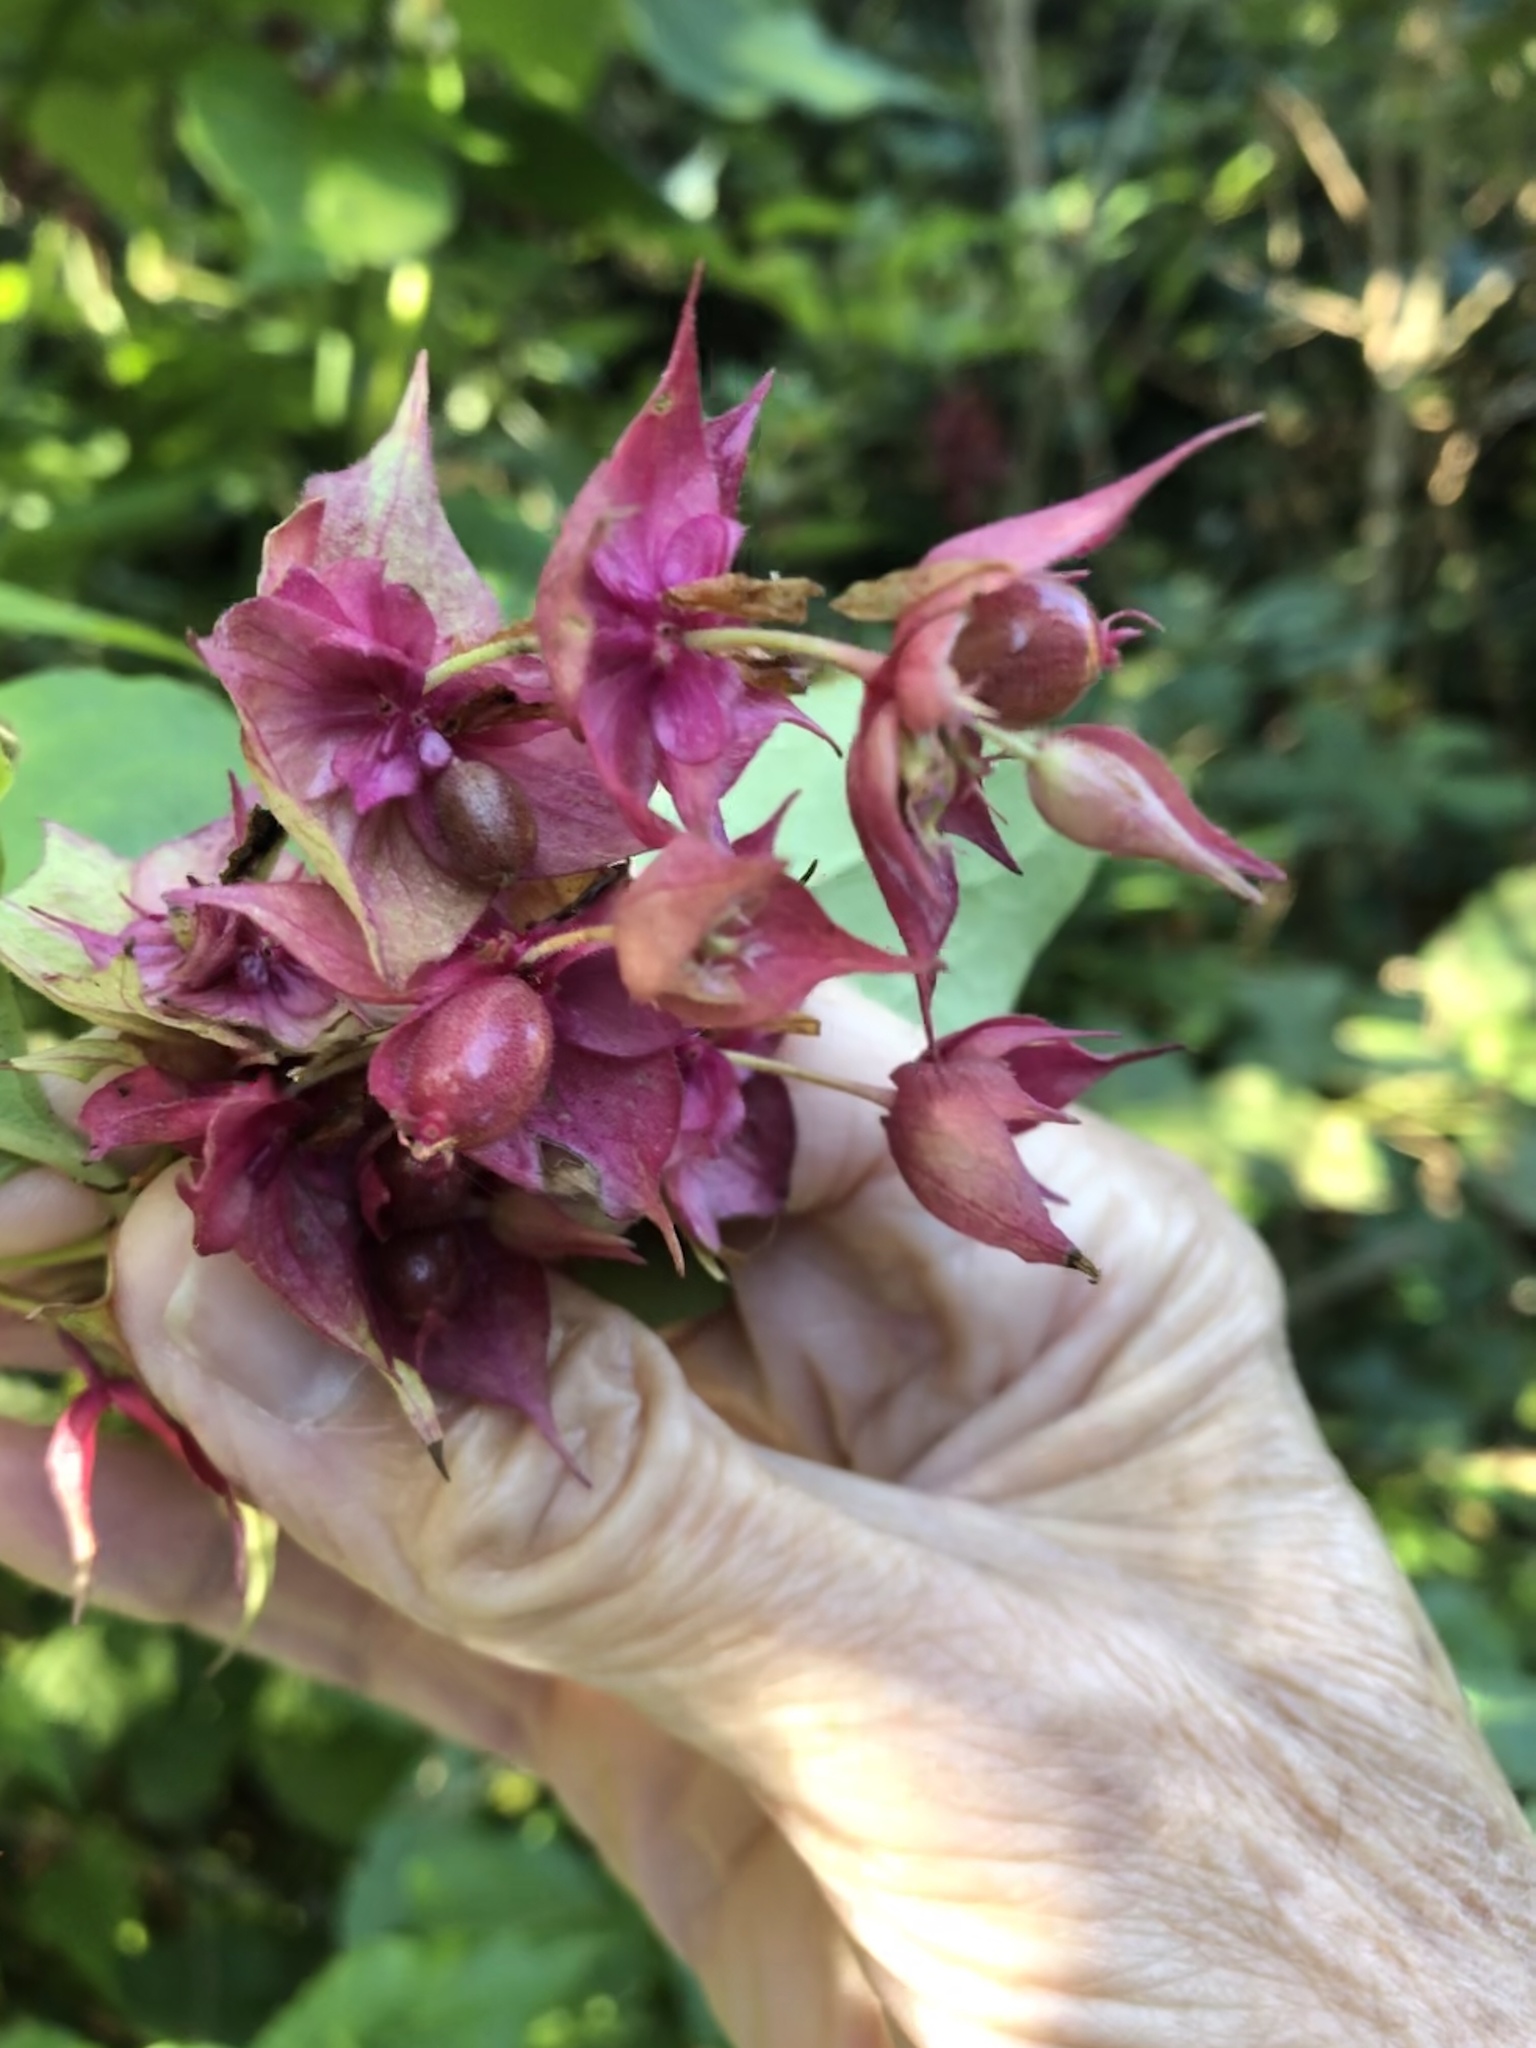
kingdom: Plantae
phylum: Tracheophyta
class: Magnoliopsida
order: Dipsacales
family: Caprifoliaceae
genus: Leycesteria
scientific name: Leycesteria formosa
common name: Himalayan honeysuckle
